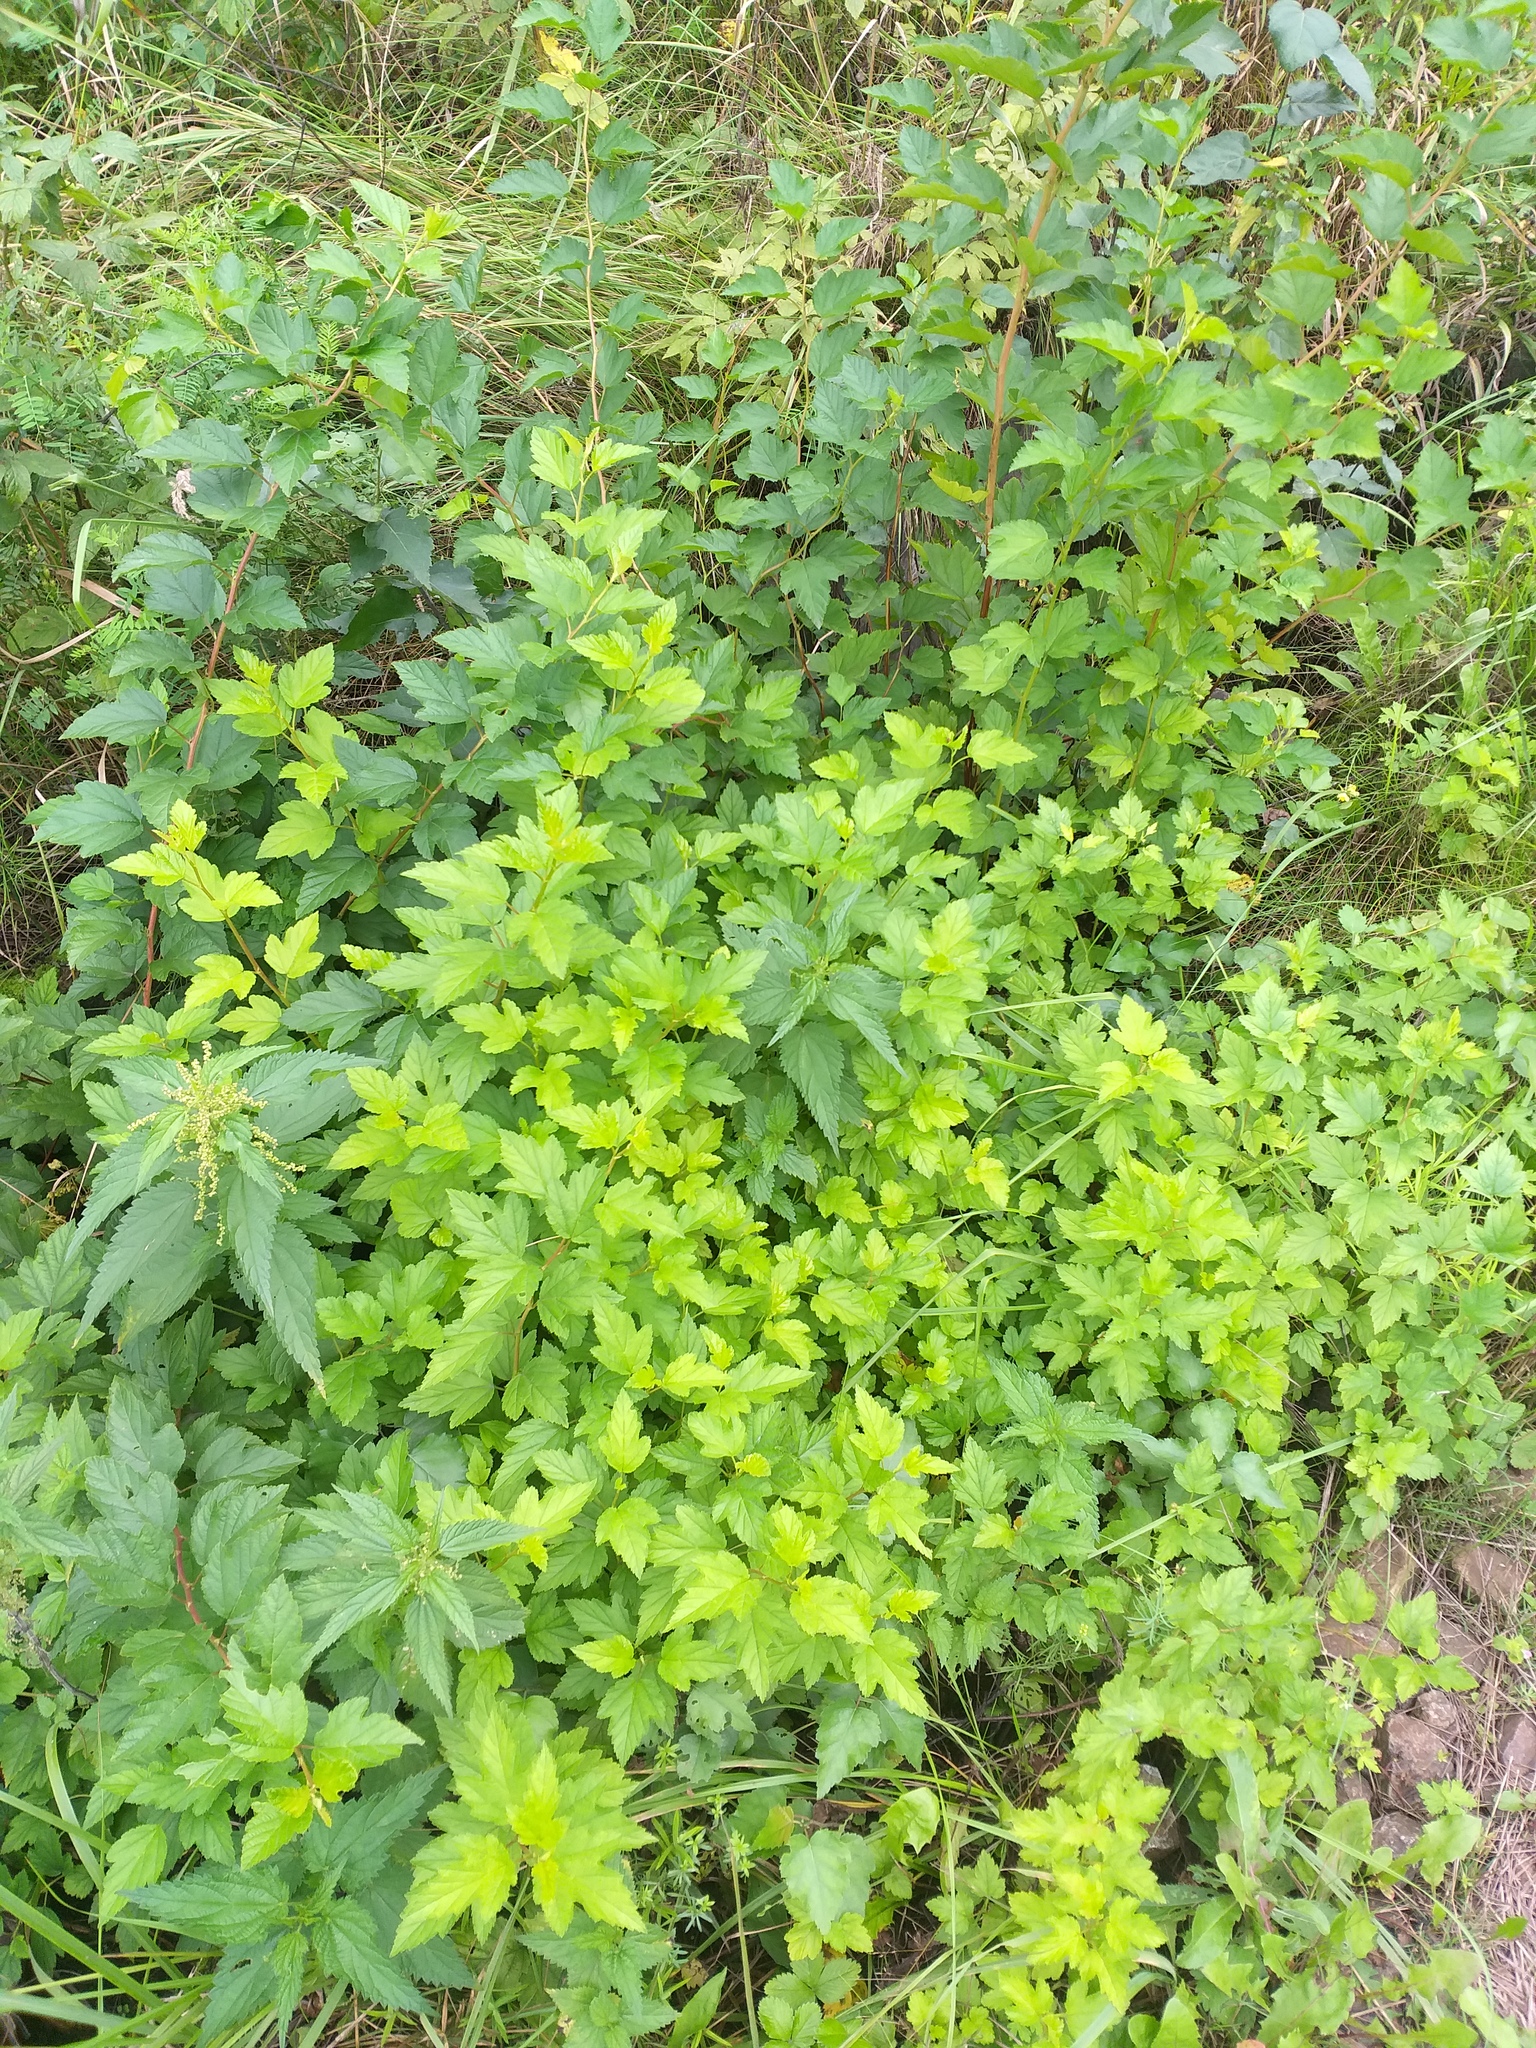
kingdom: Plantae
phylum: Tracheophyta
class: Magnoliopsida
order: Rosales
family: Rosaceae
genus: Physocarpus
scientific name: Physocarpus opulifolius
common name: Ninebark
